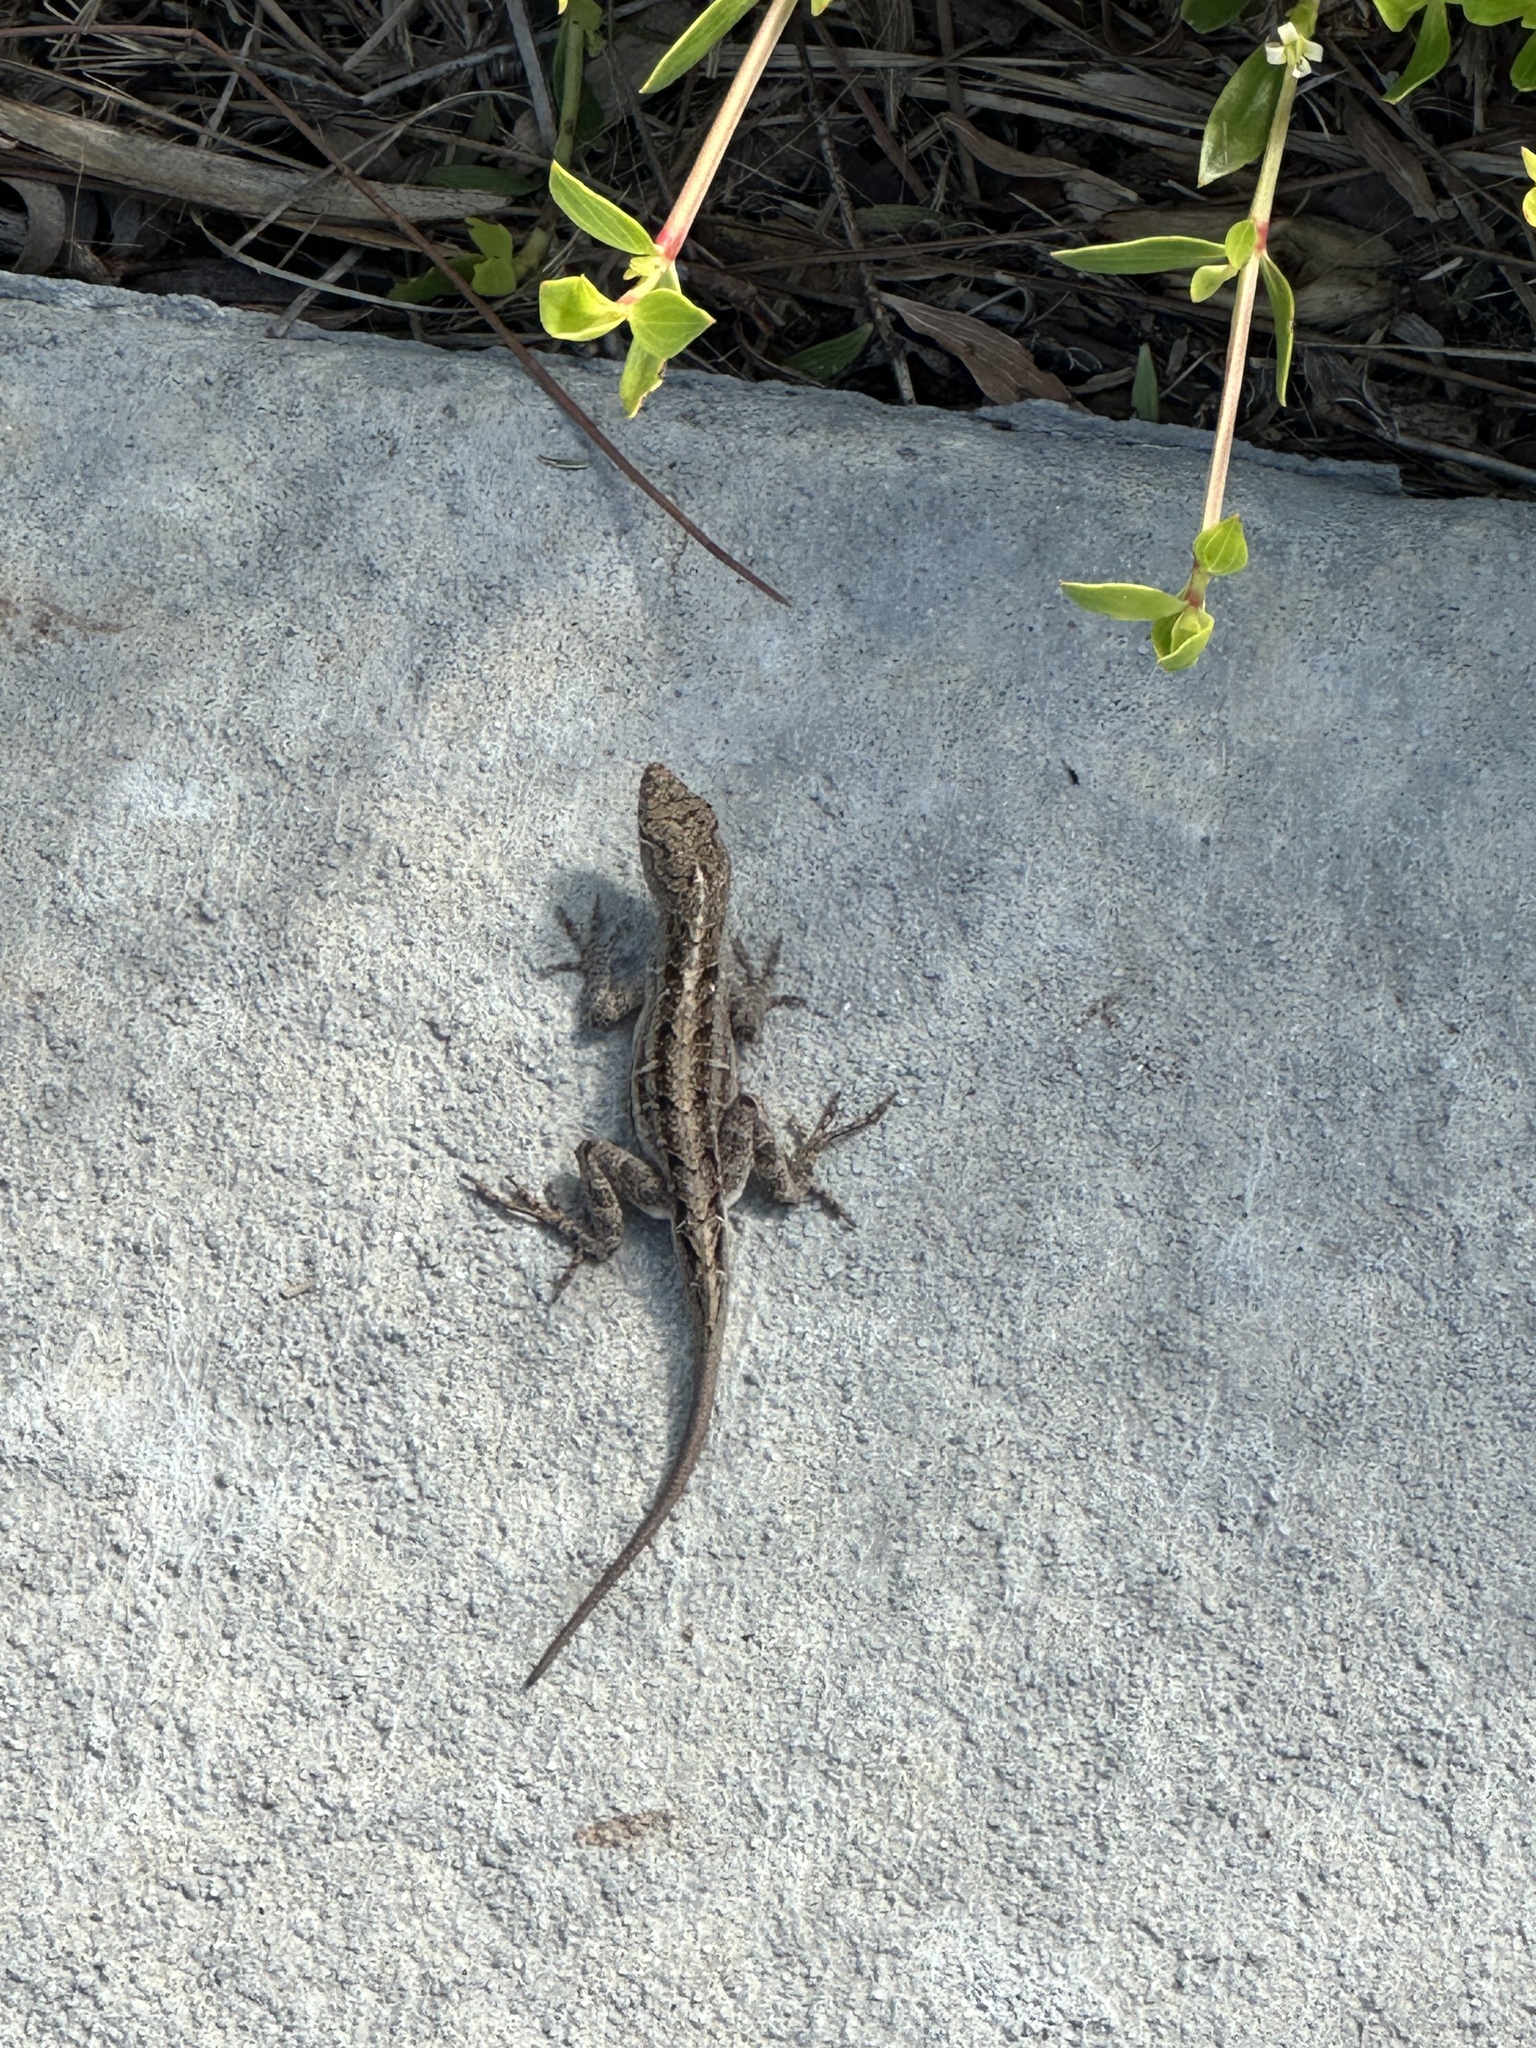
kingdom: Animalia
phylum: Chordata
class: Squamata
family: Dactyloidae
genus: Anolis
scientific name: Anolis sagrei
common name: Brown anole
